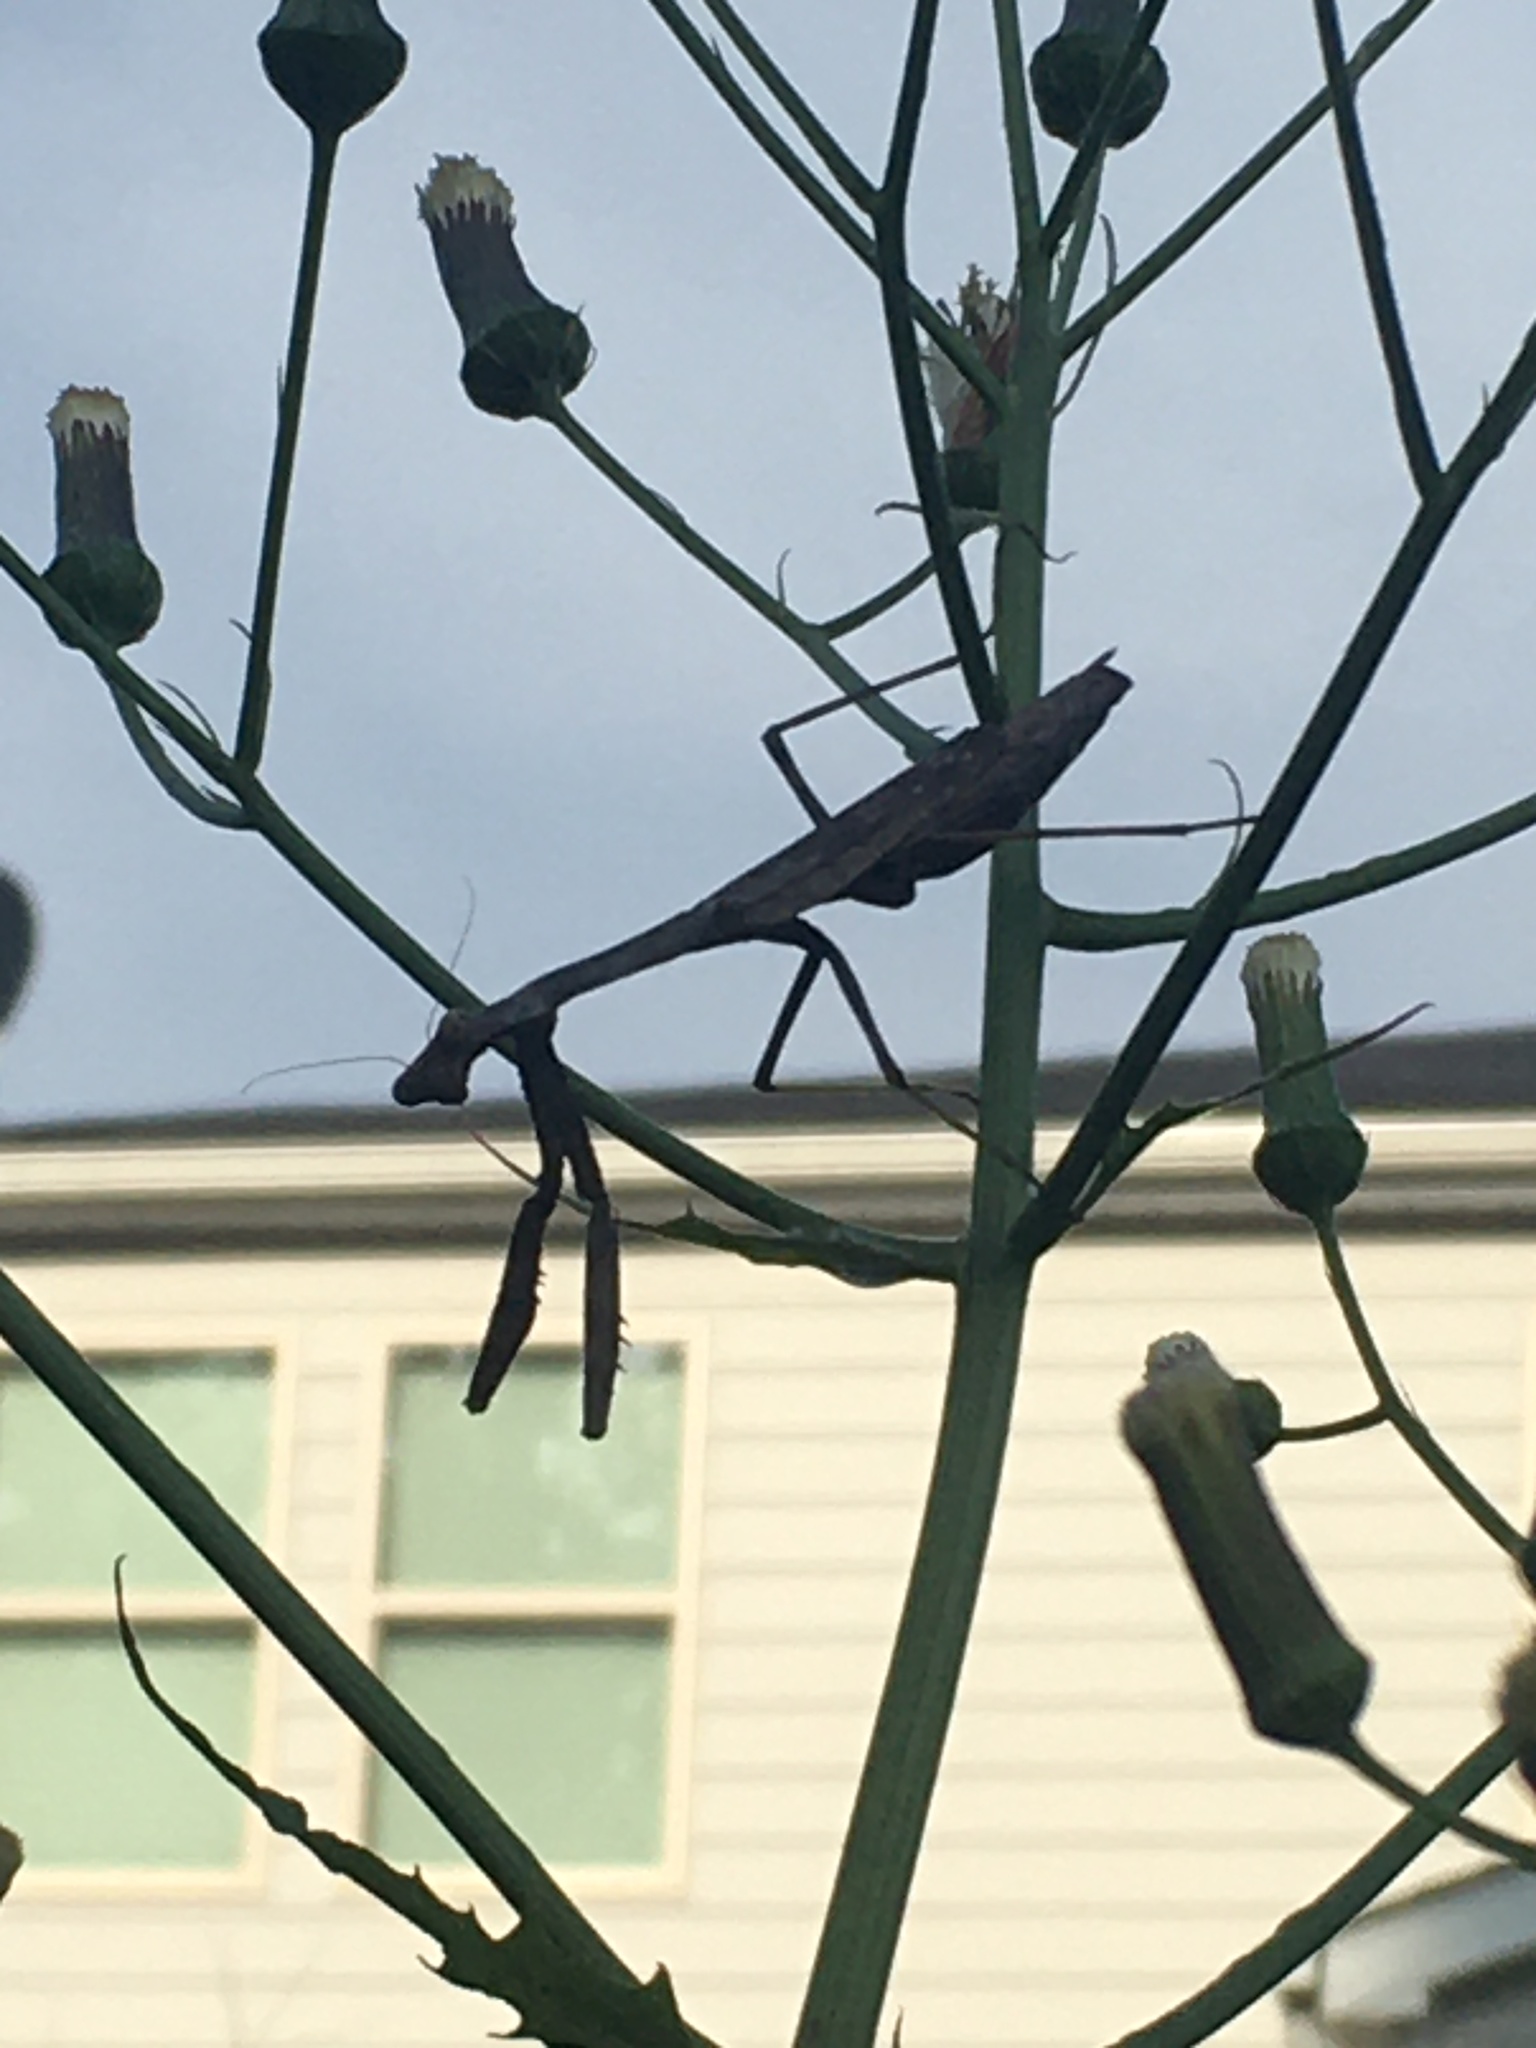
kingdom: Animalia
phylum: Arthropoda
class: Insecta
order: Mantodea
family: Mantidae
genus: Stagmomantis
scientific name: Stagmomantis carolina
